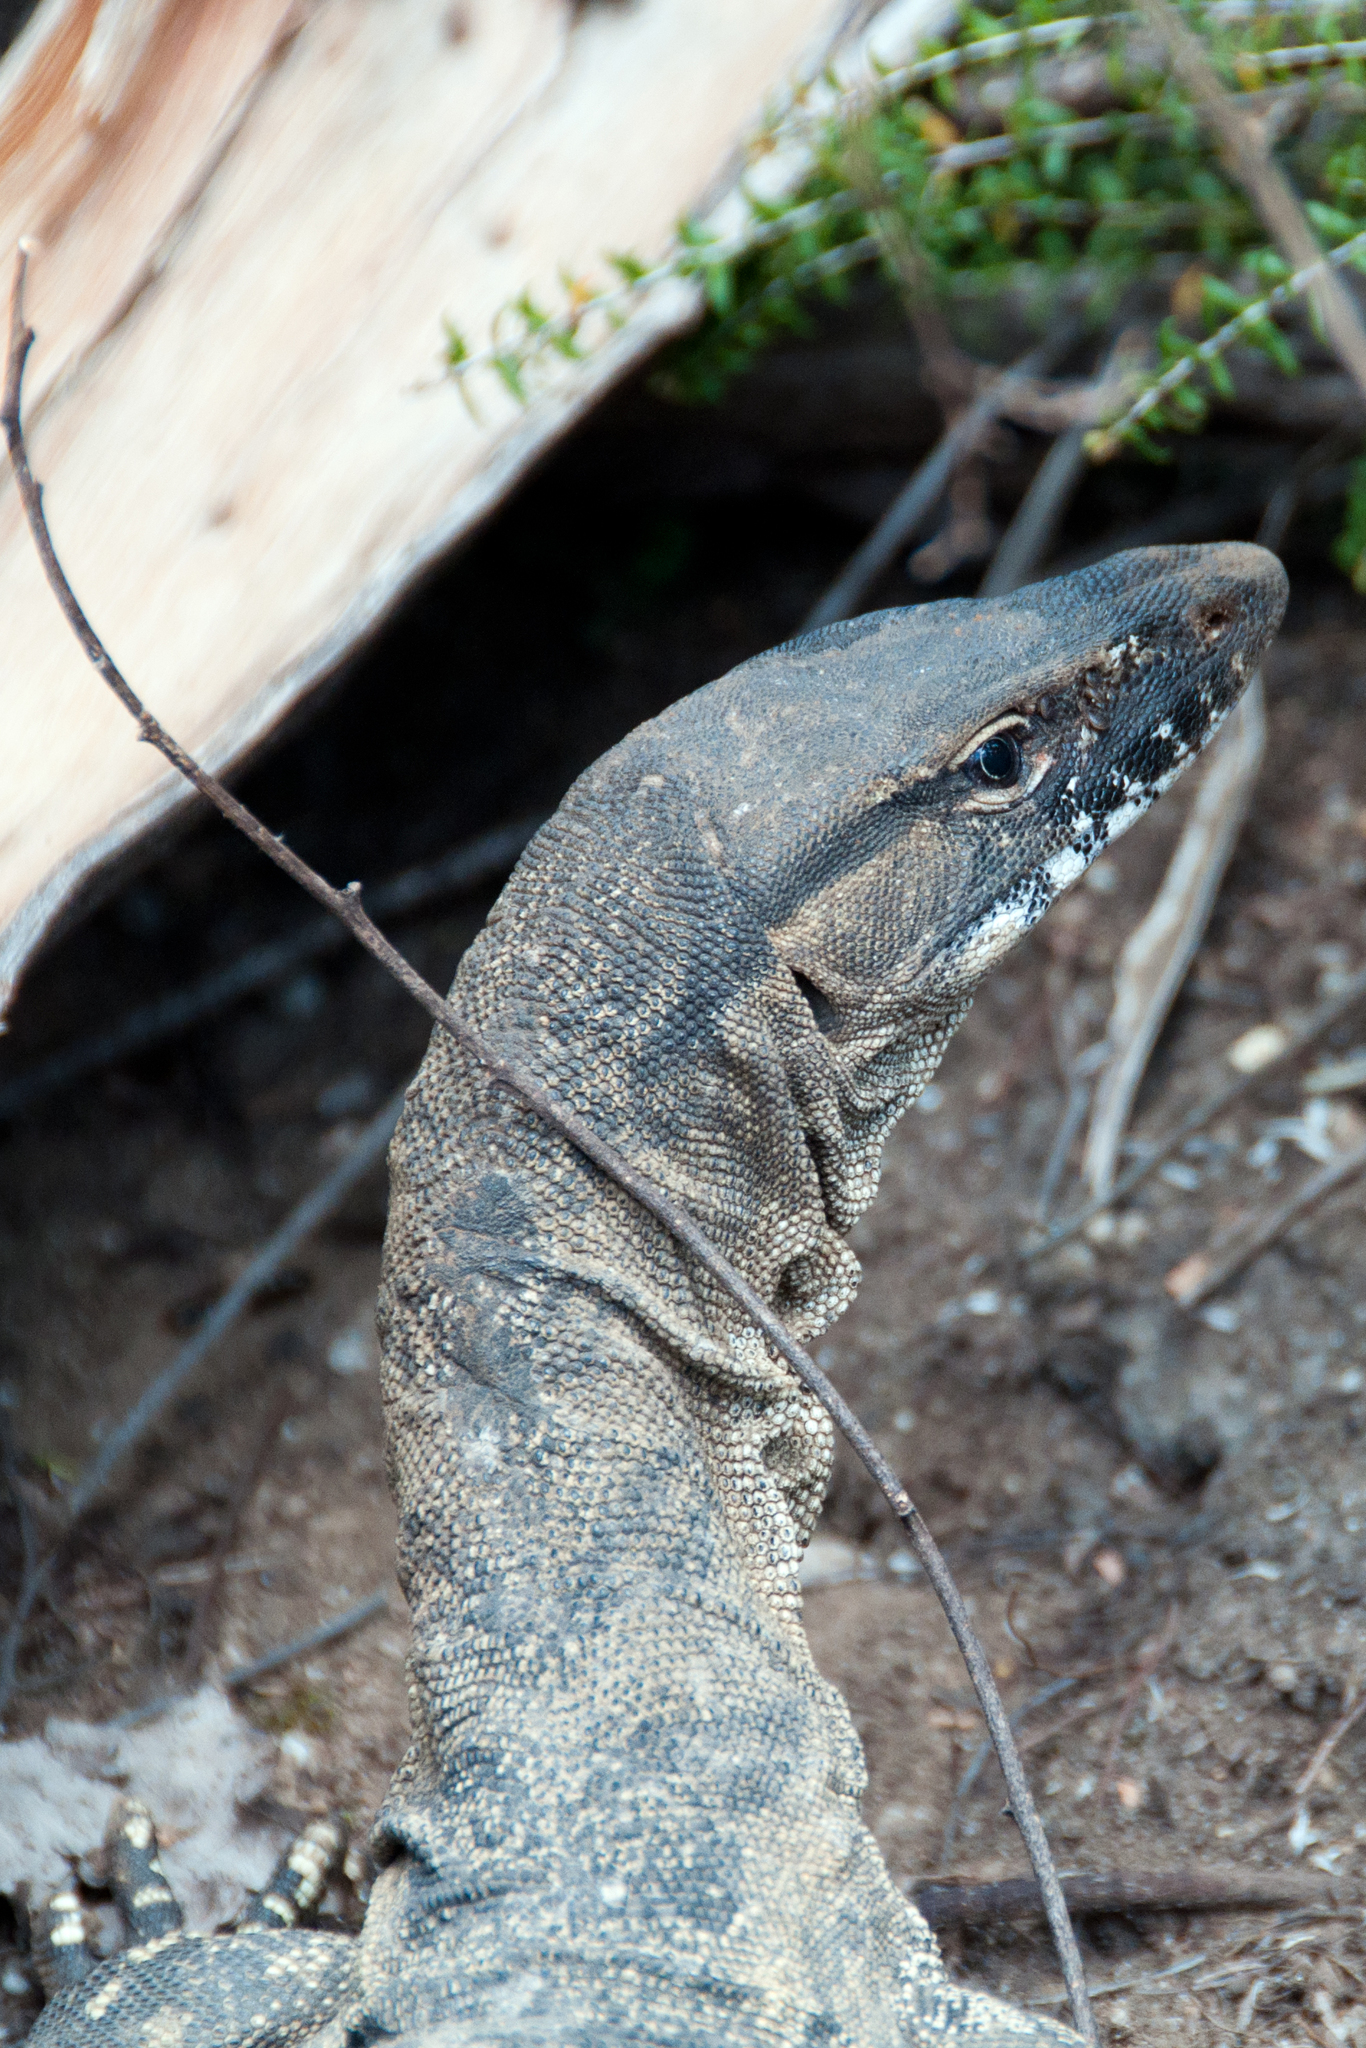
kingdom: Animalia
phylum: Chordata
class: Squamata
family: Varanidae
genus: Varanus
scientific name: Varanus rosenbergi
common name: Heath monitor
